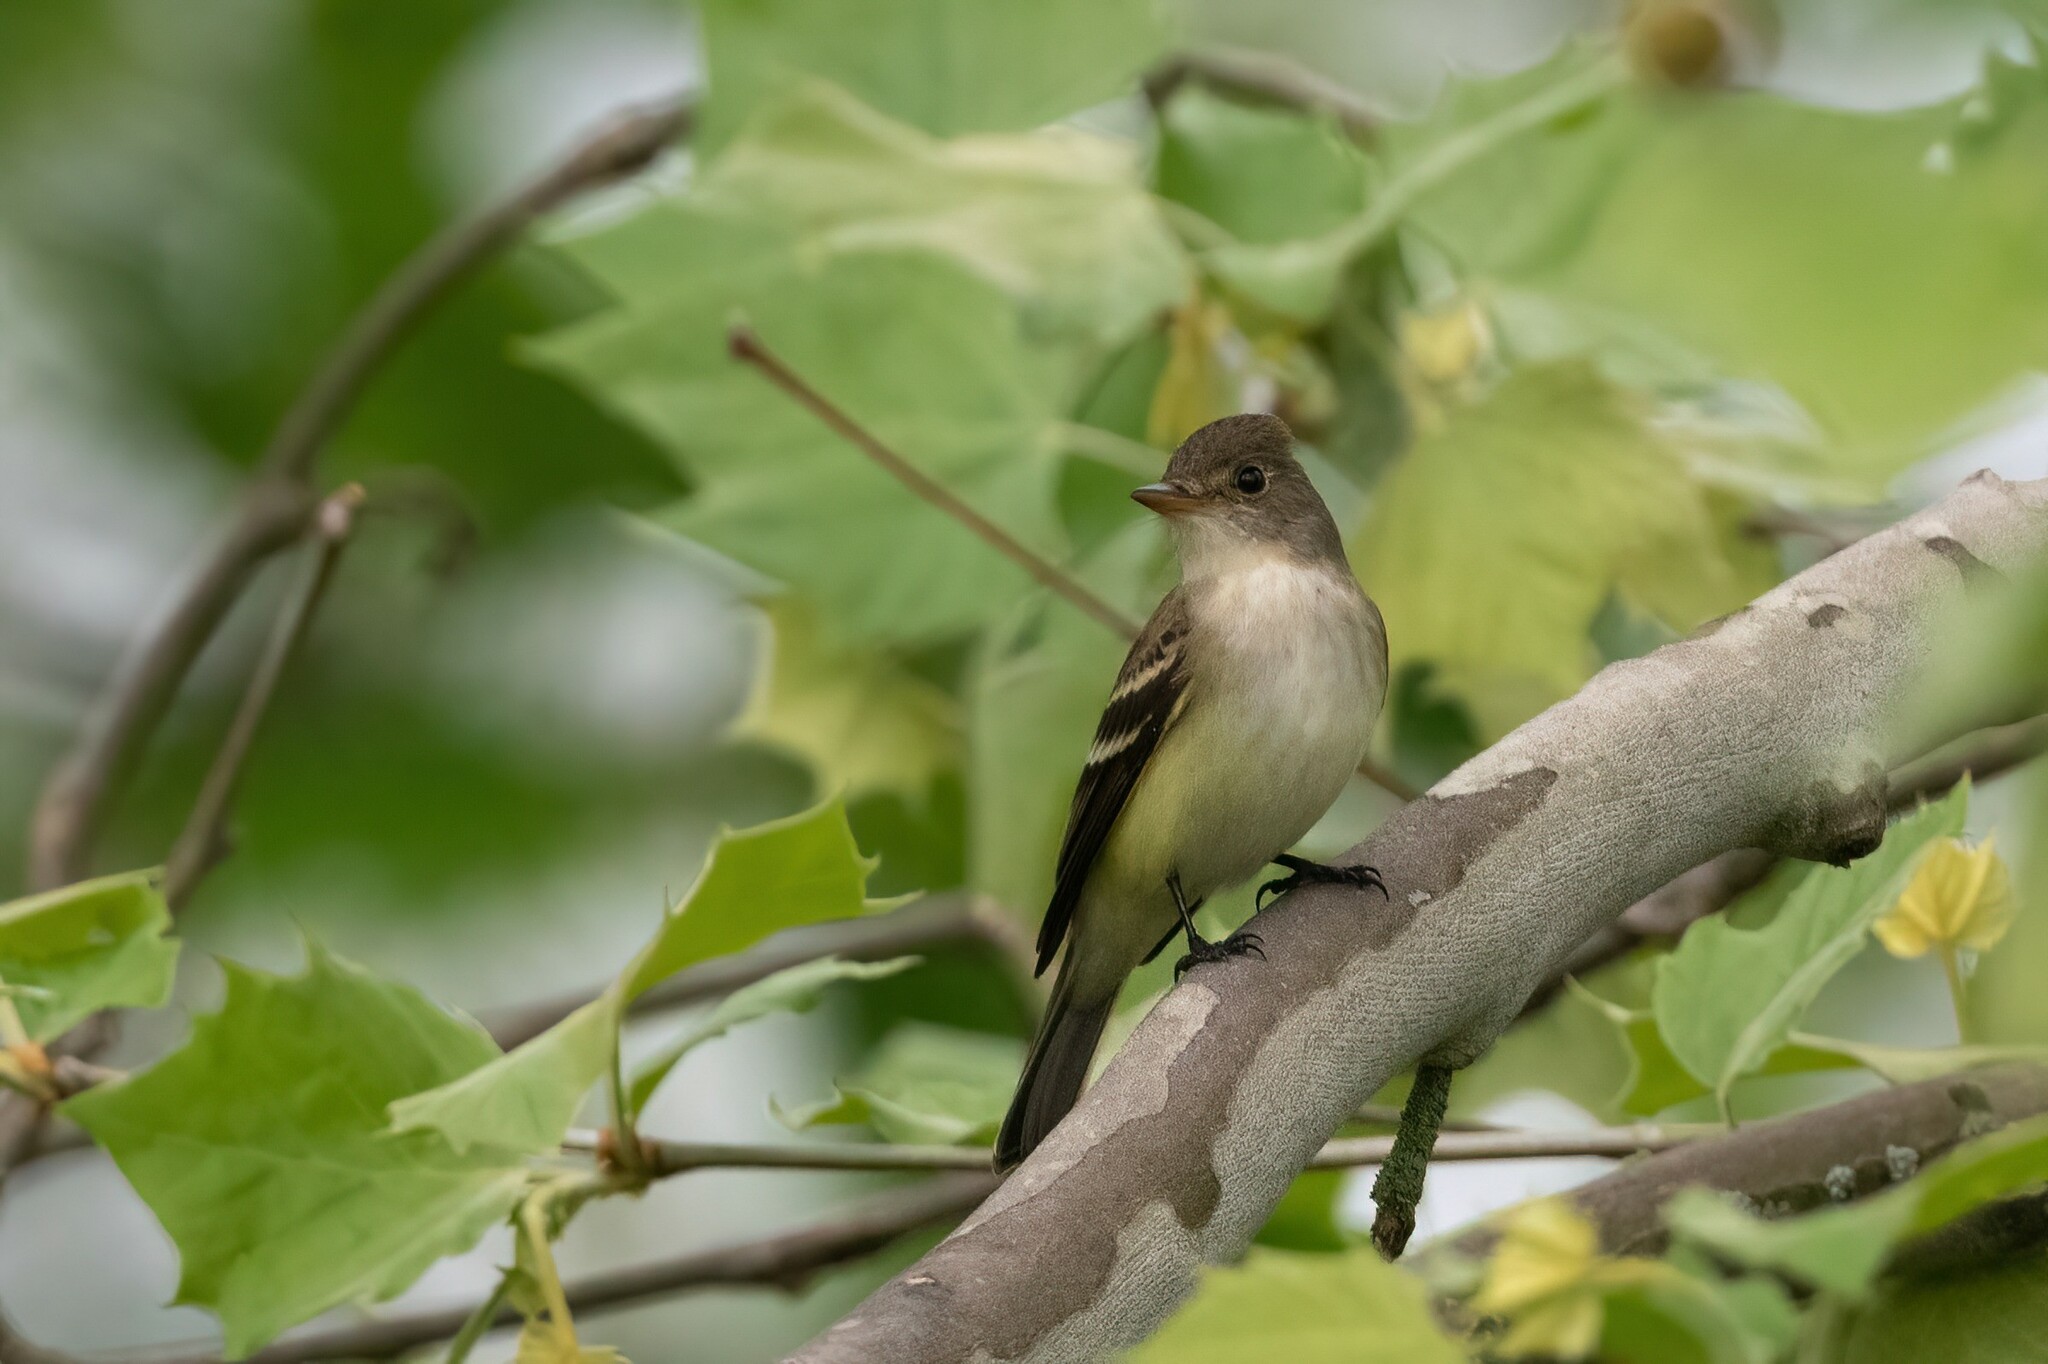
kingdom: Animalia
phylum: Chordata
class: Aves
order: Passeriformes
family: Tyrannidae
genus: Empidonax
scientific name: Empidonax traillii
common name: Willow flycatcher
